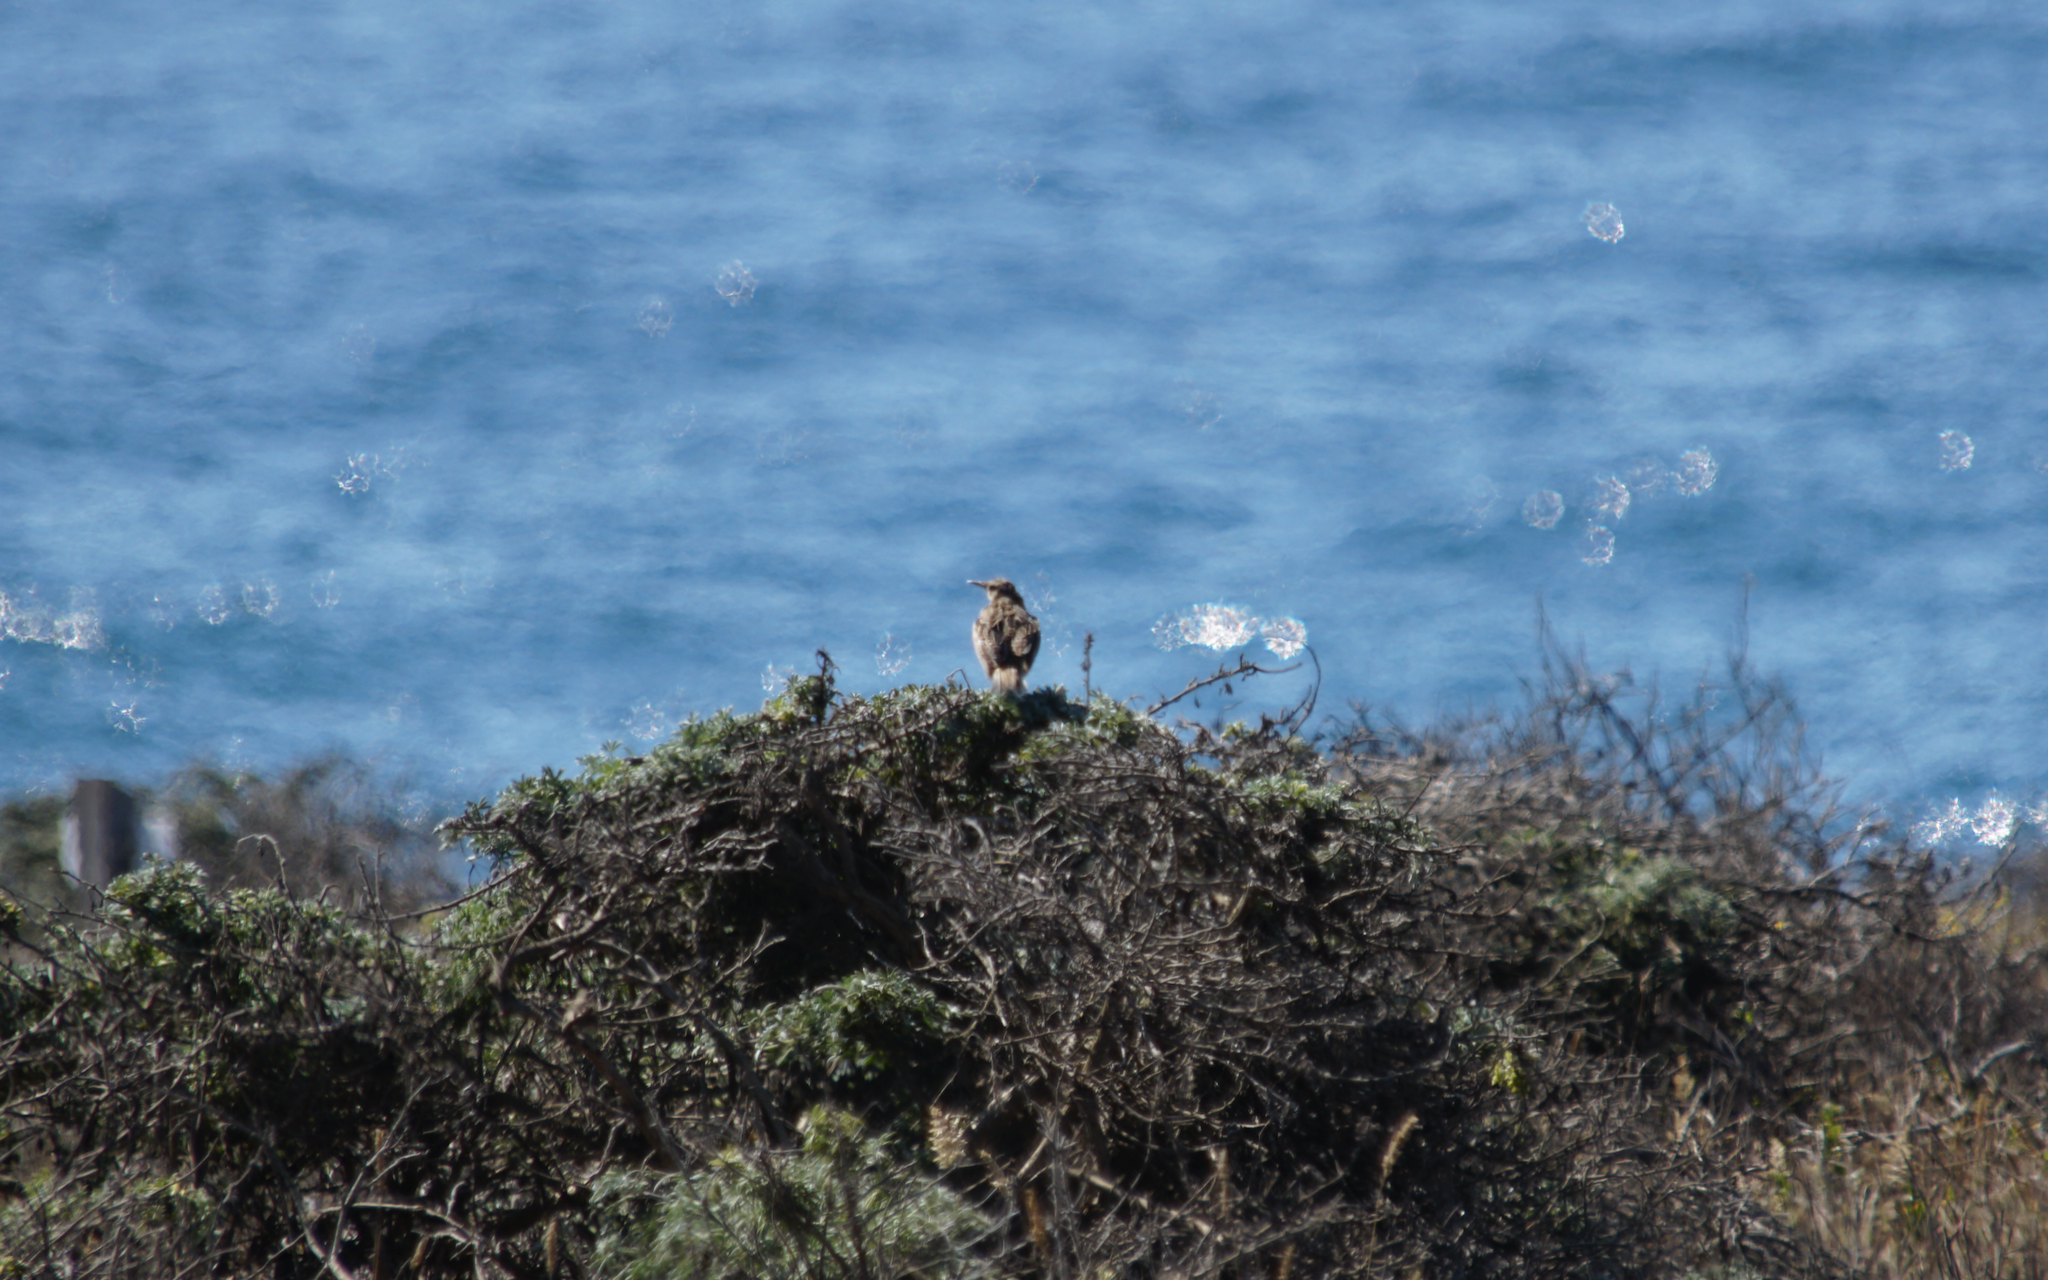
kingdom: Animalia
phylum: Chordata
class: Aves
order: Passeriformes
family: Icteridae
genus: Sturnella
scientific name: Sturnella neglecta
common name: Western meadowlark
